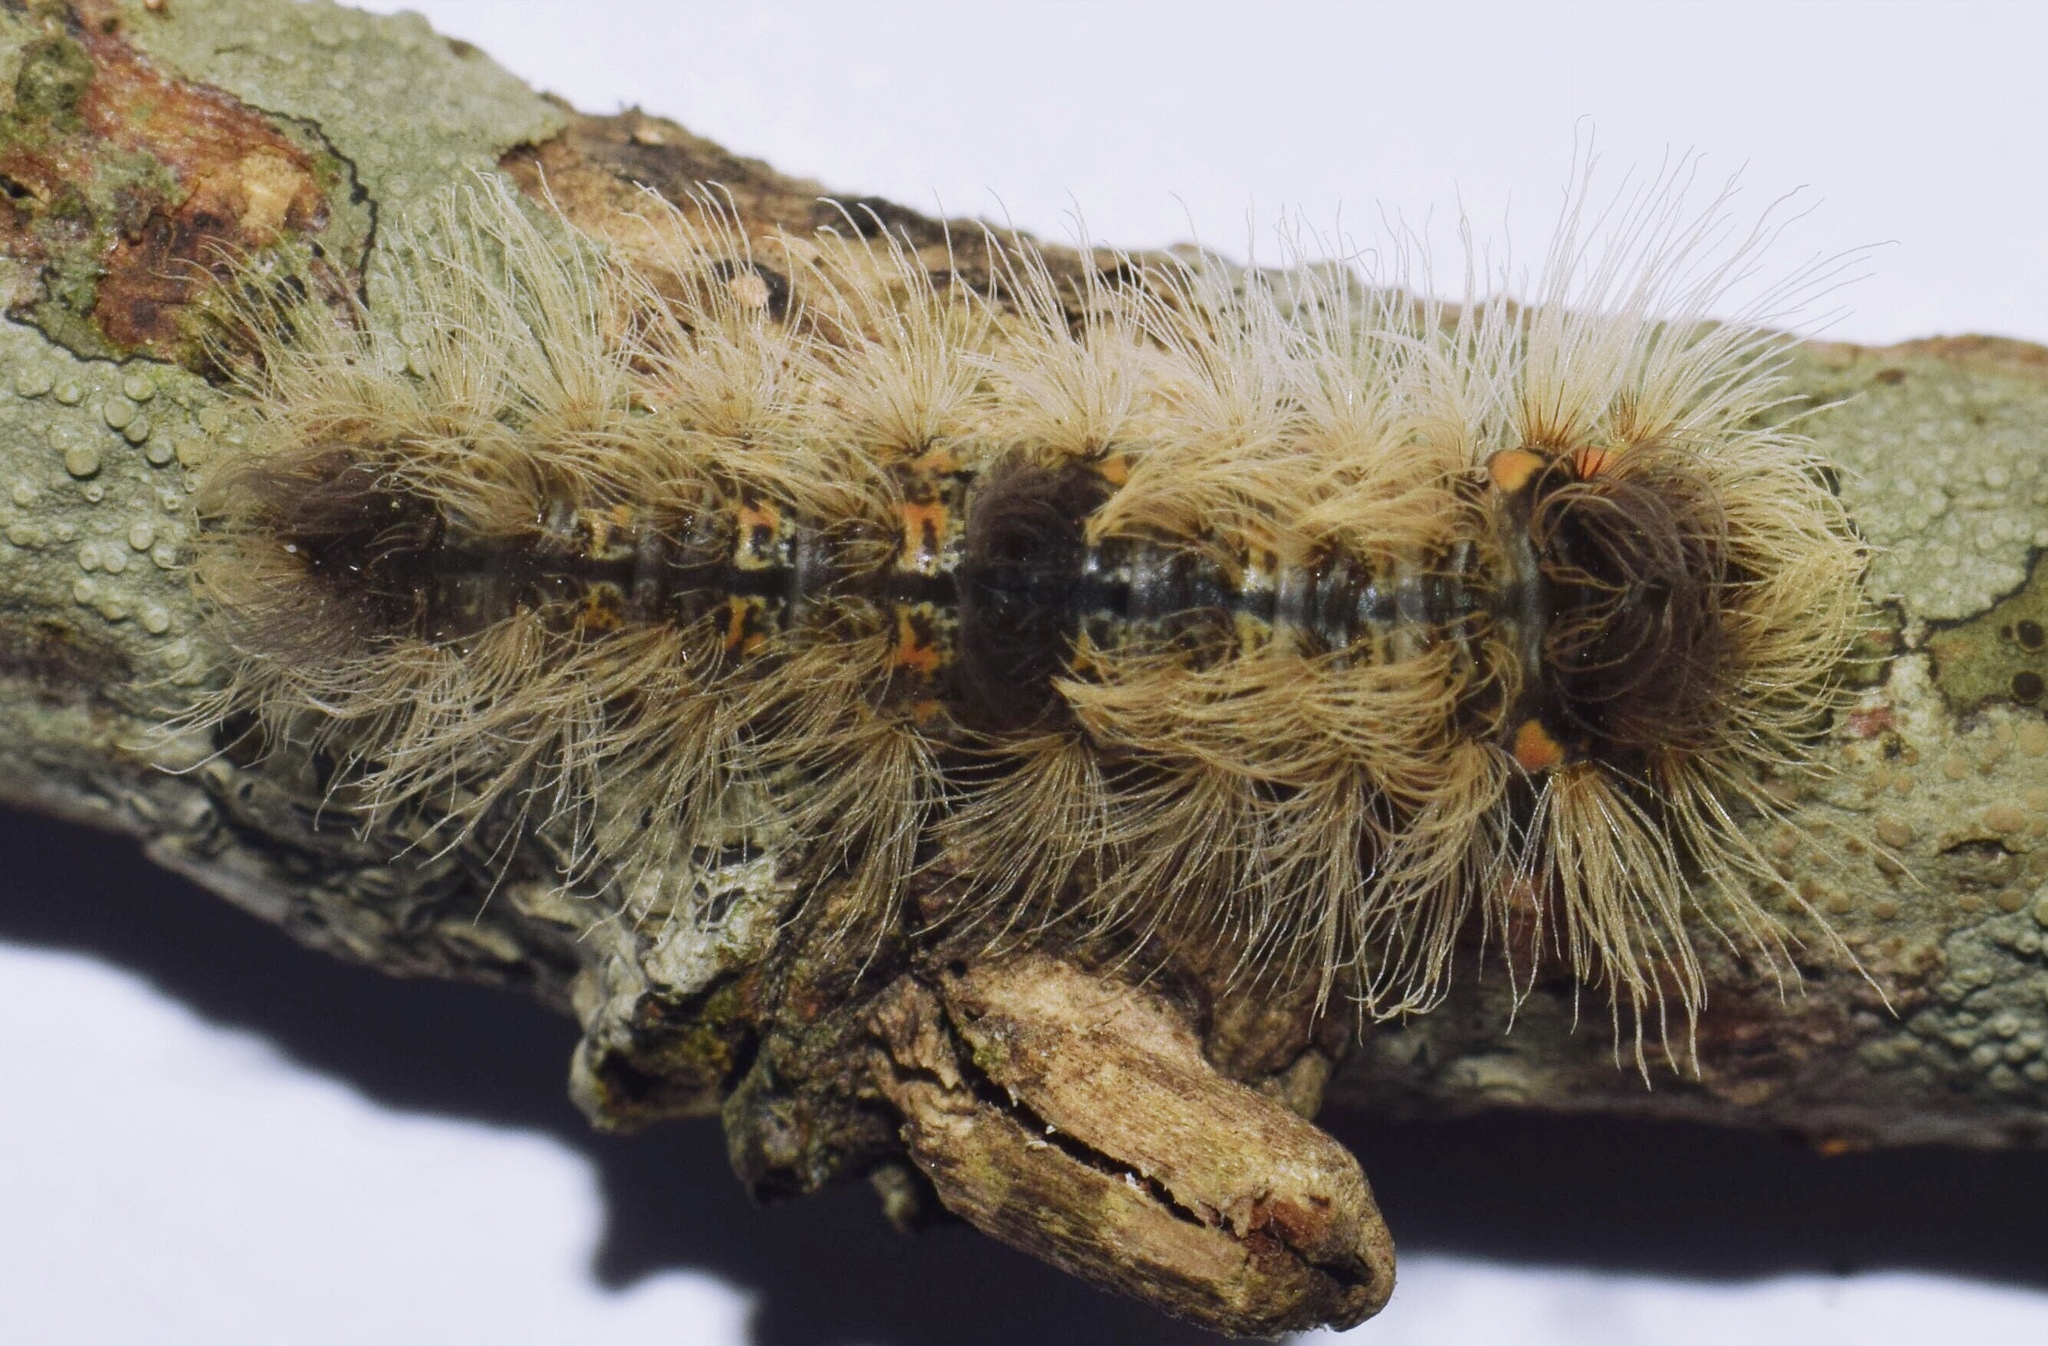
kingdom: Animalia
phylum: Arthropoda
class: Insecta
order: Lepidoptera
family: Erebidae
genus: Pseudocragia
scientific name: Pseudocragia quadrinotata
